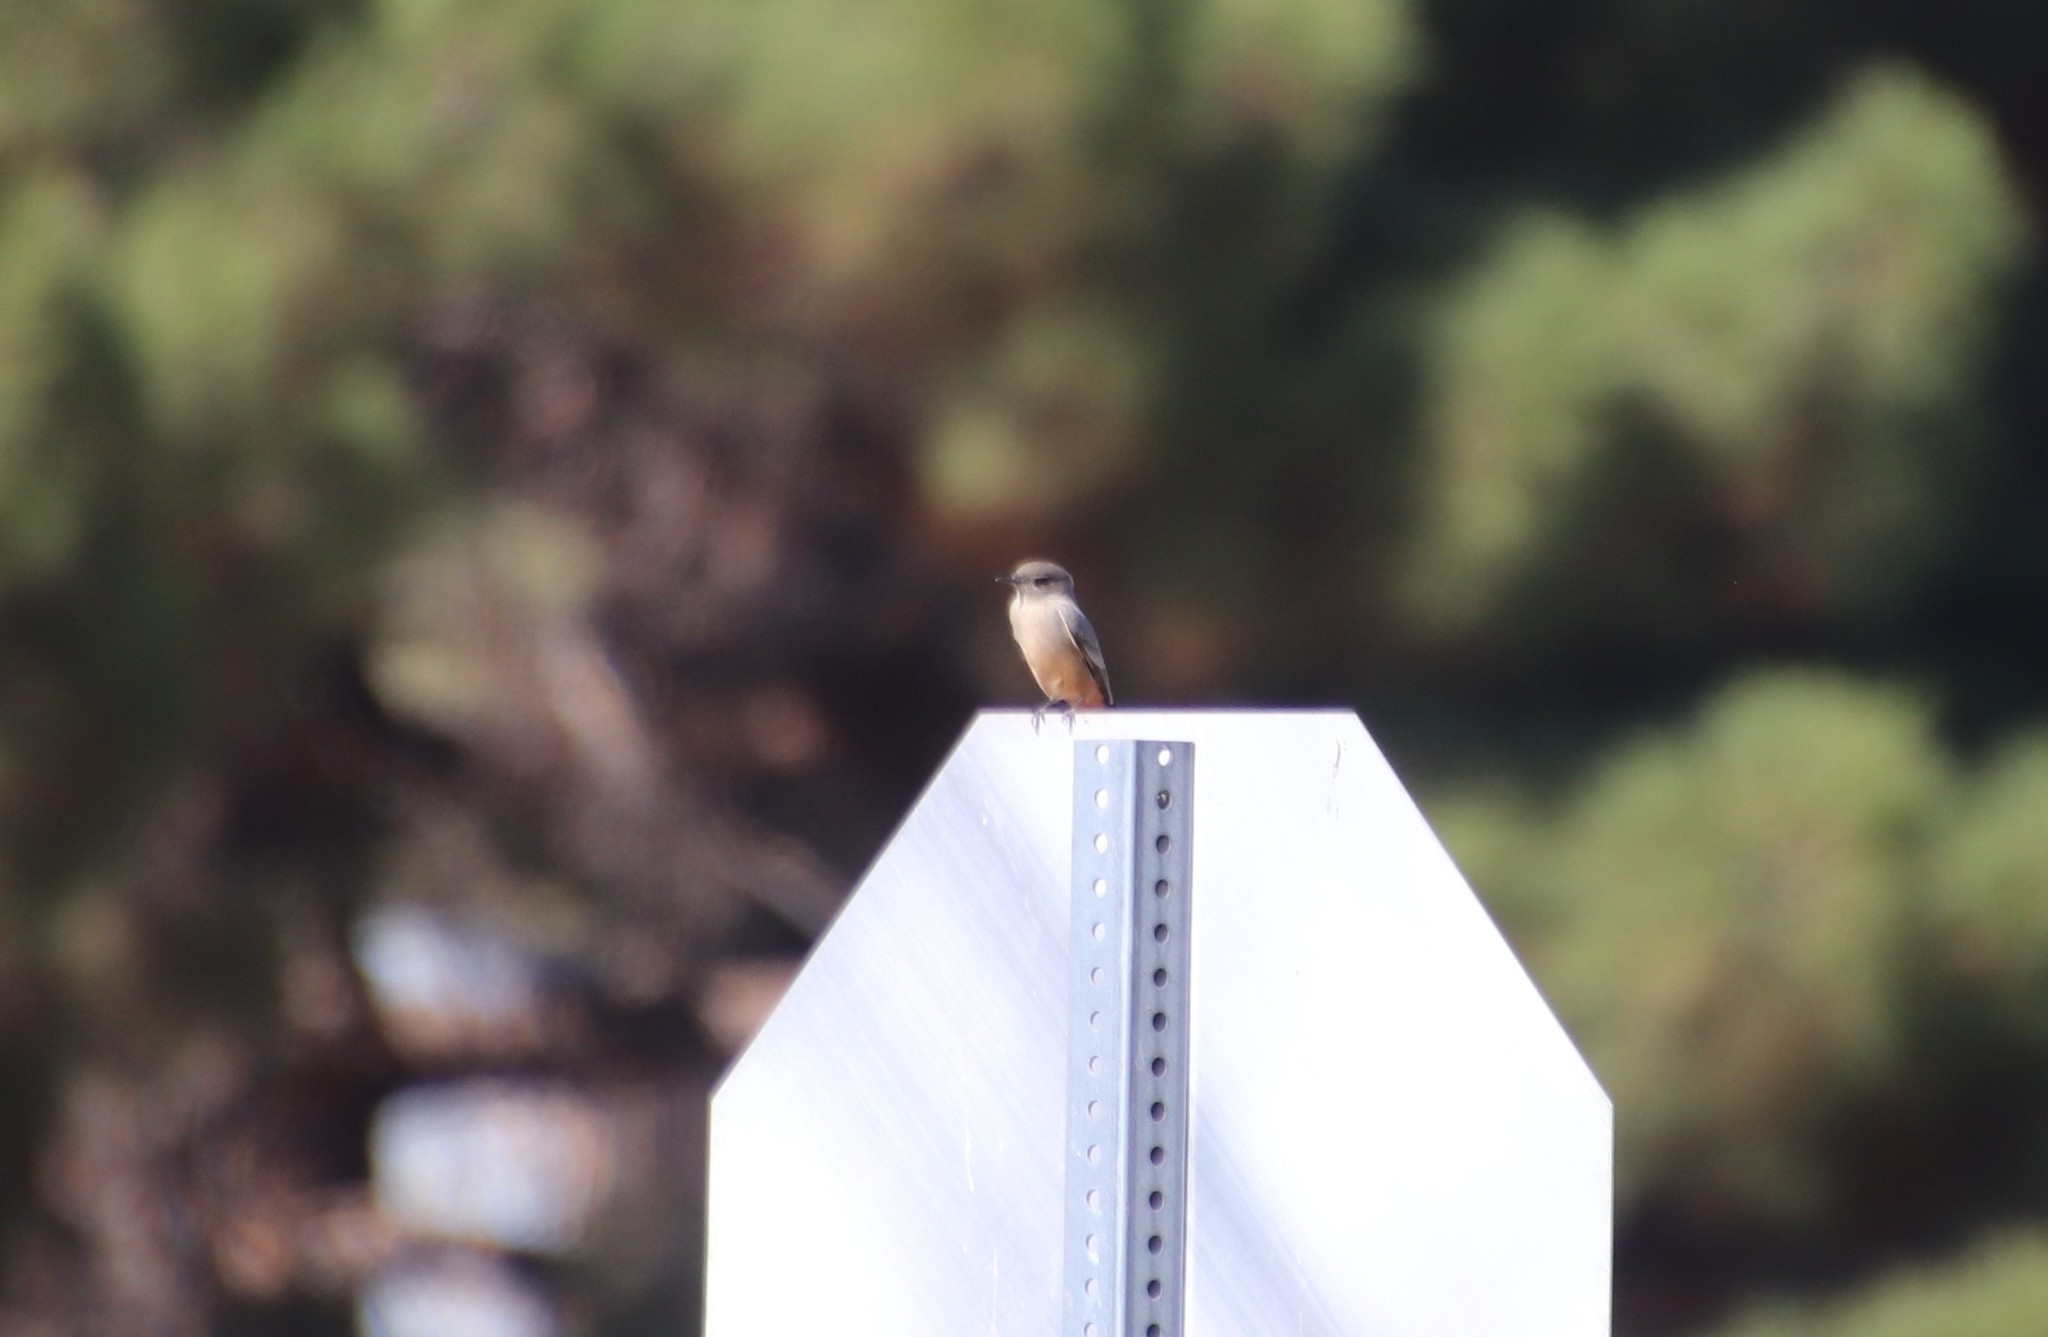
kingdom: Animalia
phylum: Chordata
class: Aves
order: Passeriformes
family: Tyrannidae
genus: Sayornis
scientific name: Sayornis saya
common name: Say's phoebe
